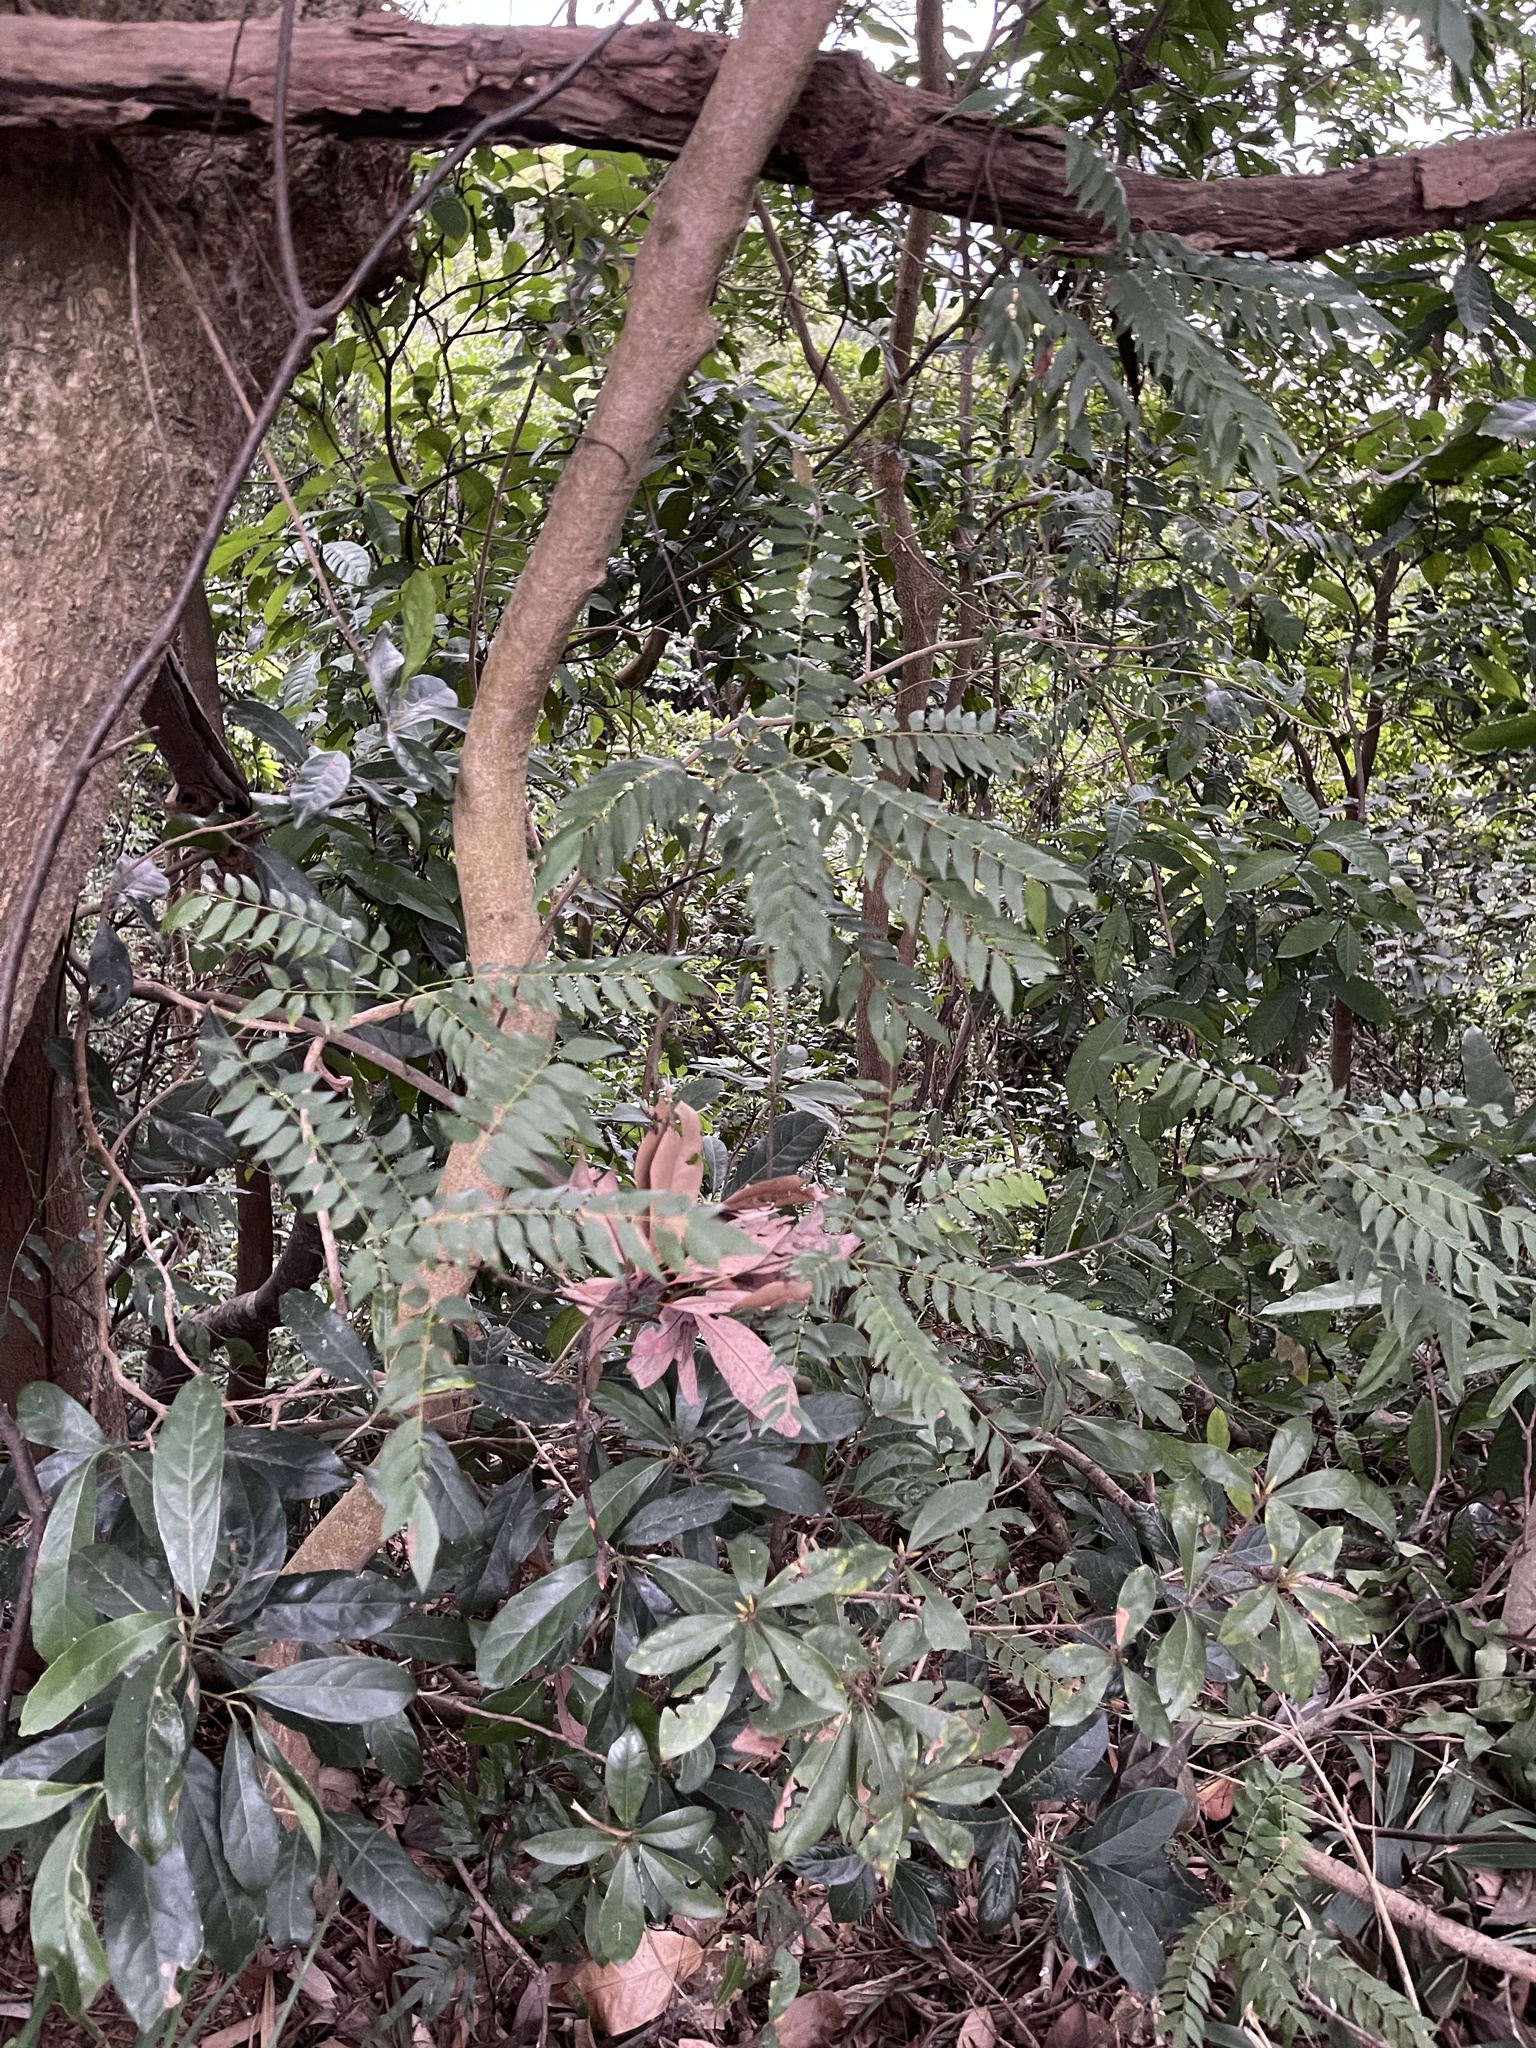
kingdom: Plantae
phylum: Tracheophyta
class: Magnoliopsida
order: Oxalidales
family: Connaraceae
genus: Rourea
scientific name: Rourea microphylla
